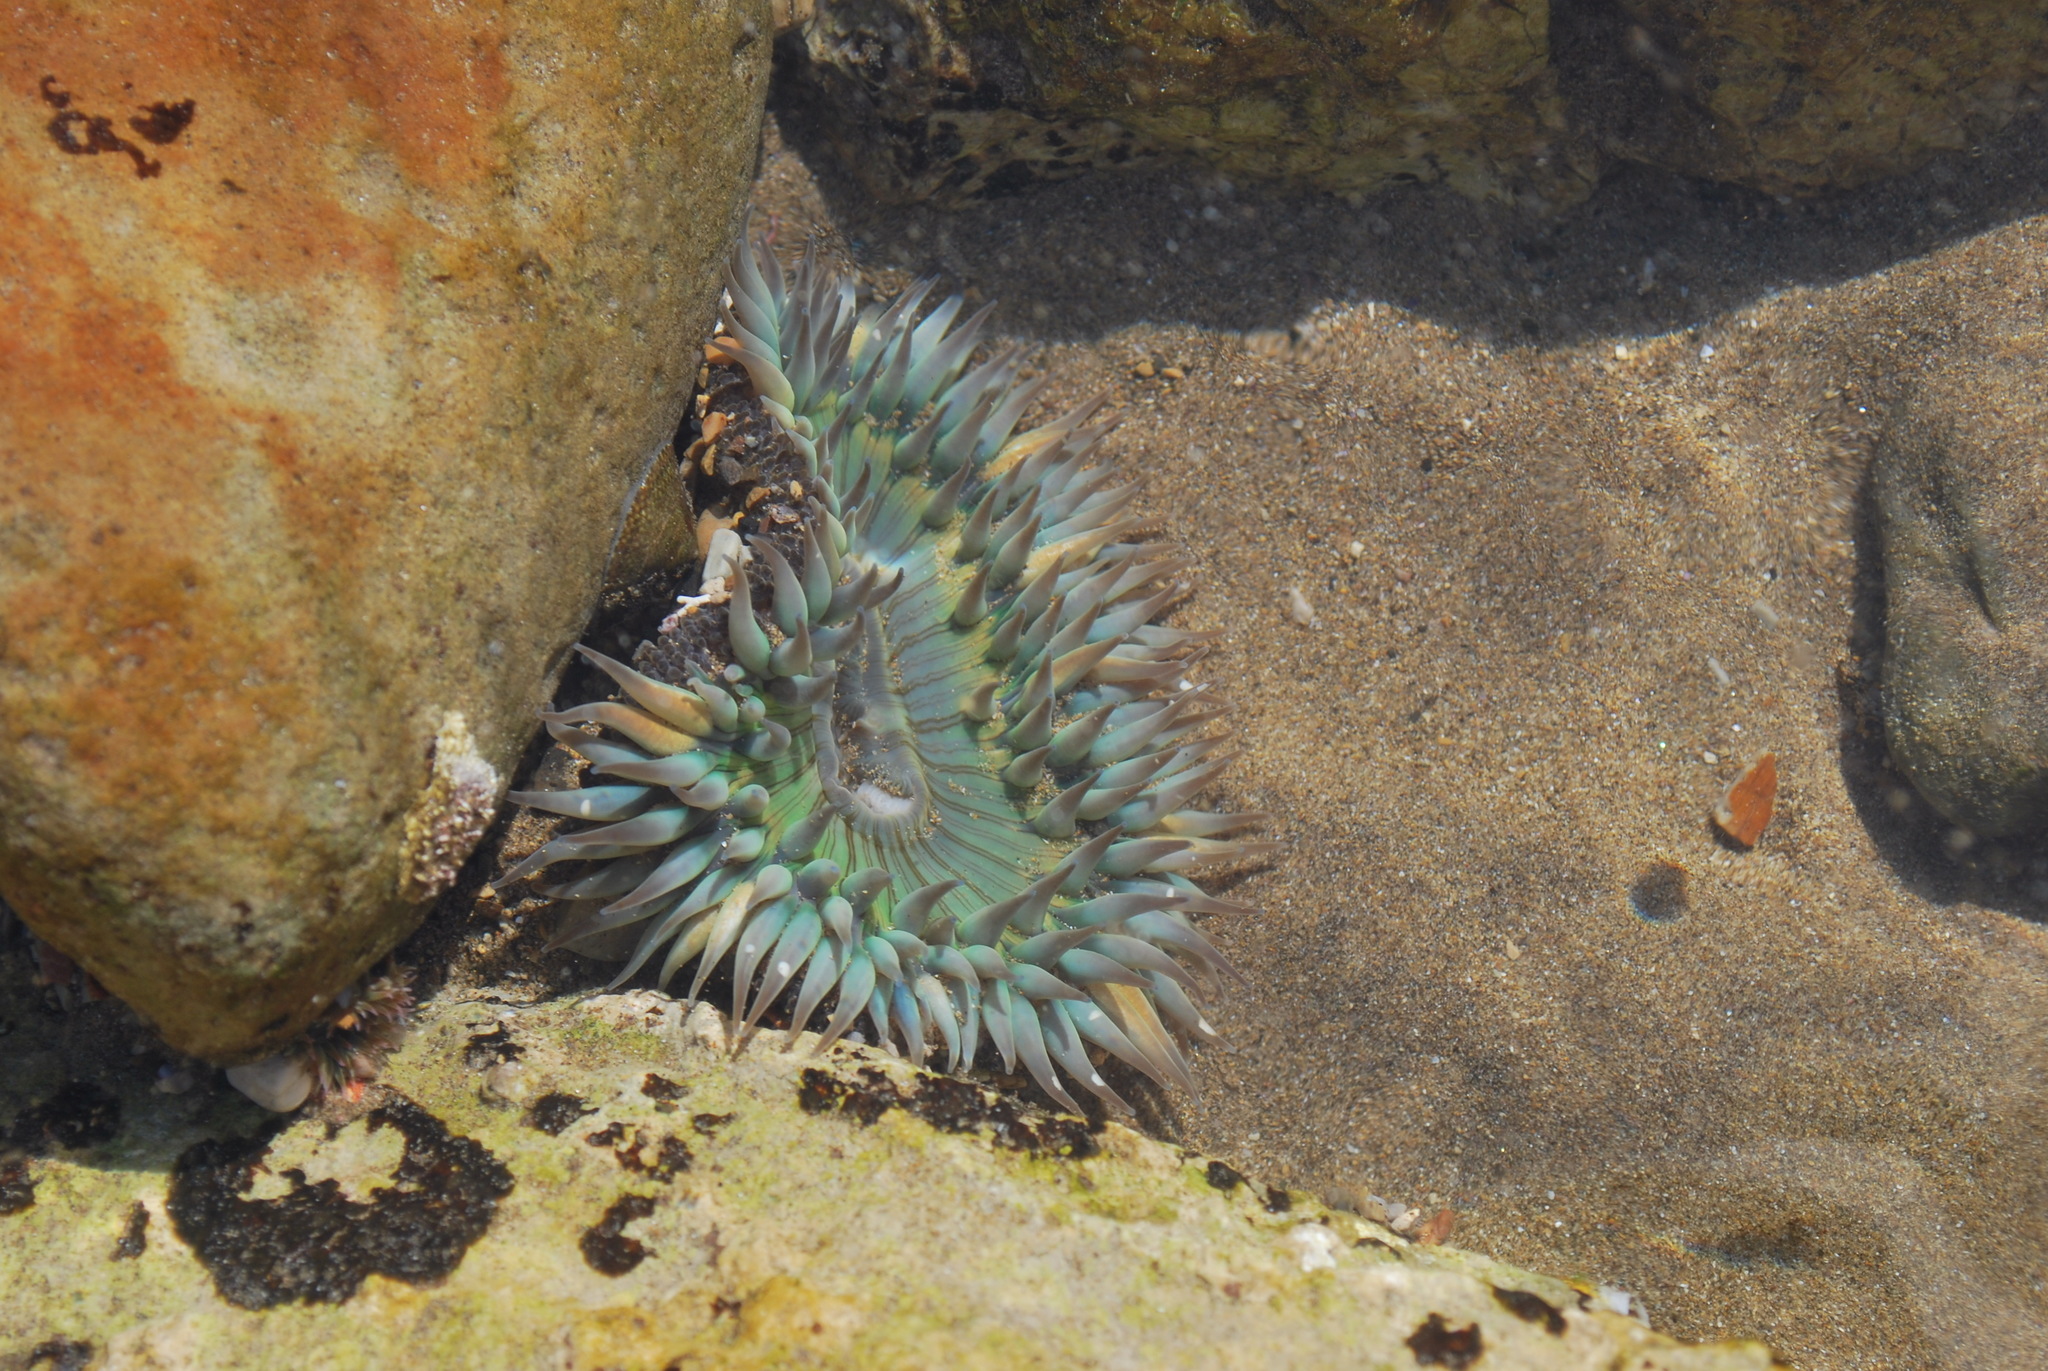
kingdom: Animalia
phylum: Cnidaria
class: Anthozoa
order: Actiniaria
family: Actiniidae
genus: Anthopleura
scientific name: Anthopleura sola
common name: Sun anemone
